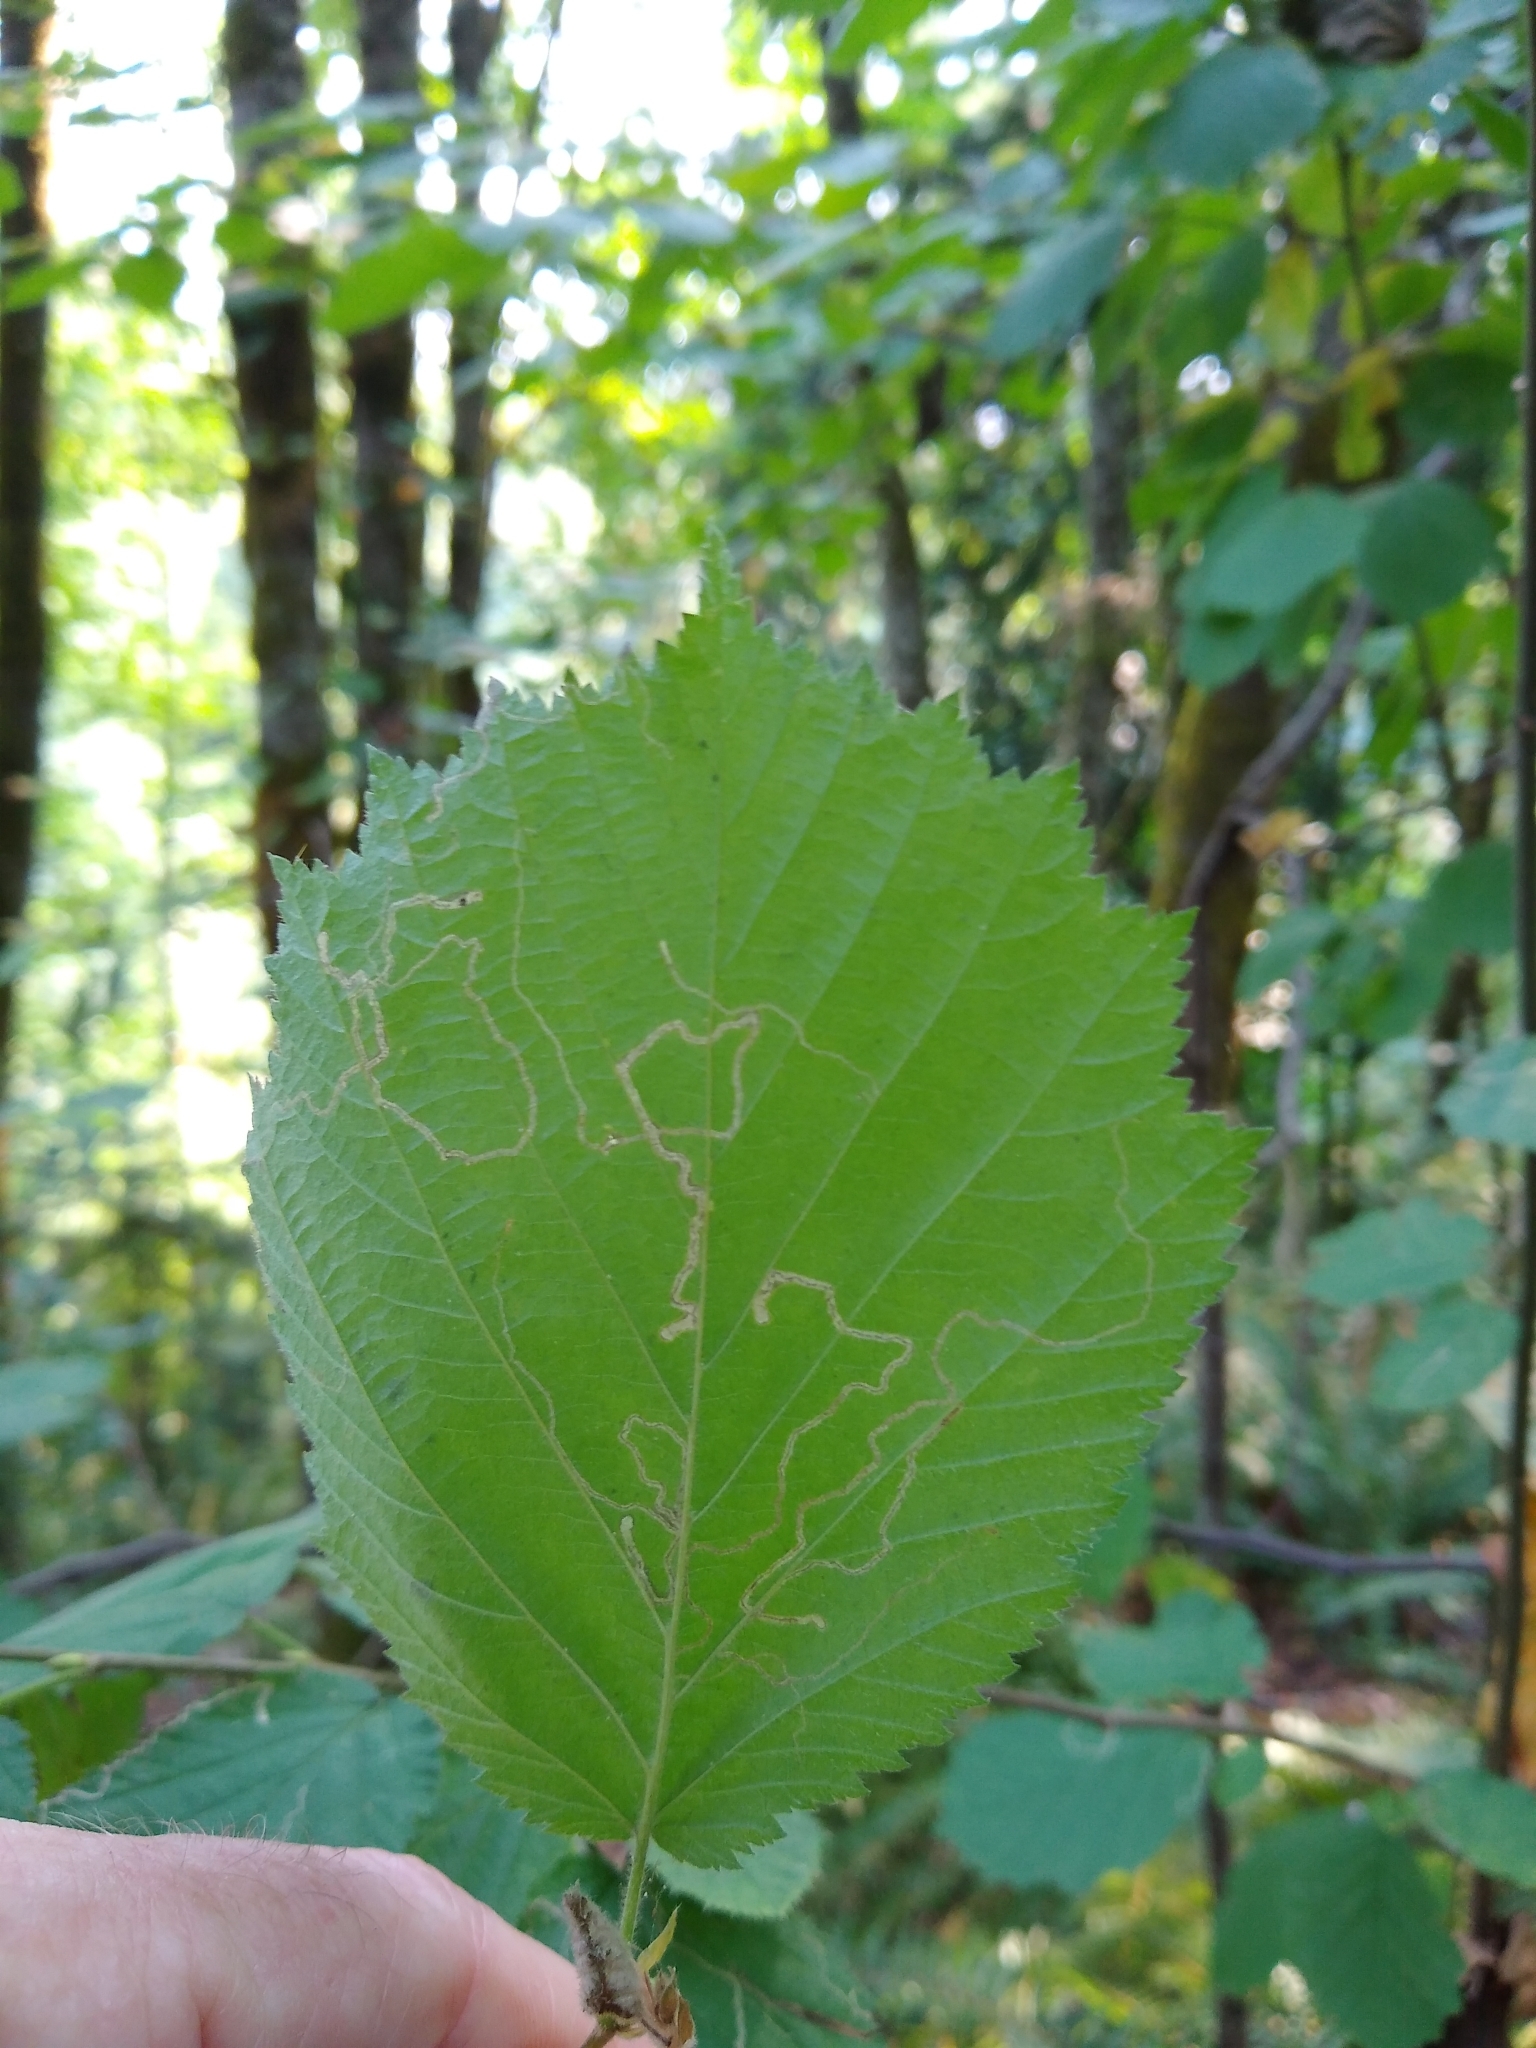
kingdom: Animalia
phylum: Arthropoda
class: Insecta
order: Lepidoptera
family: Nepticulidae
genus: Stigmella
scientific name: Stigmella microtheriella
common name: Nut-tree pigmy
